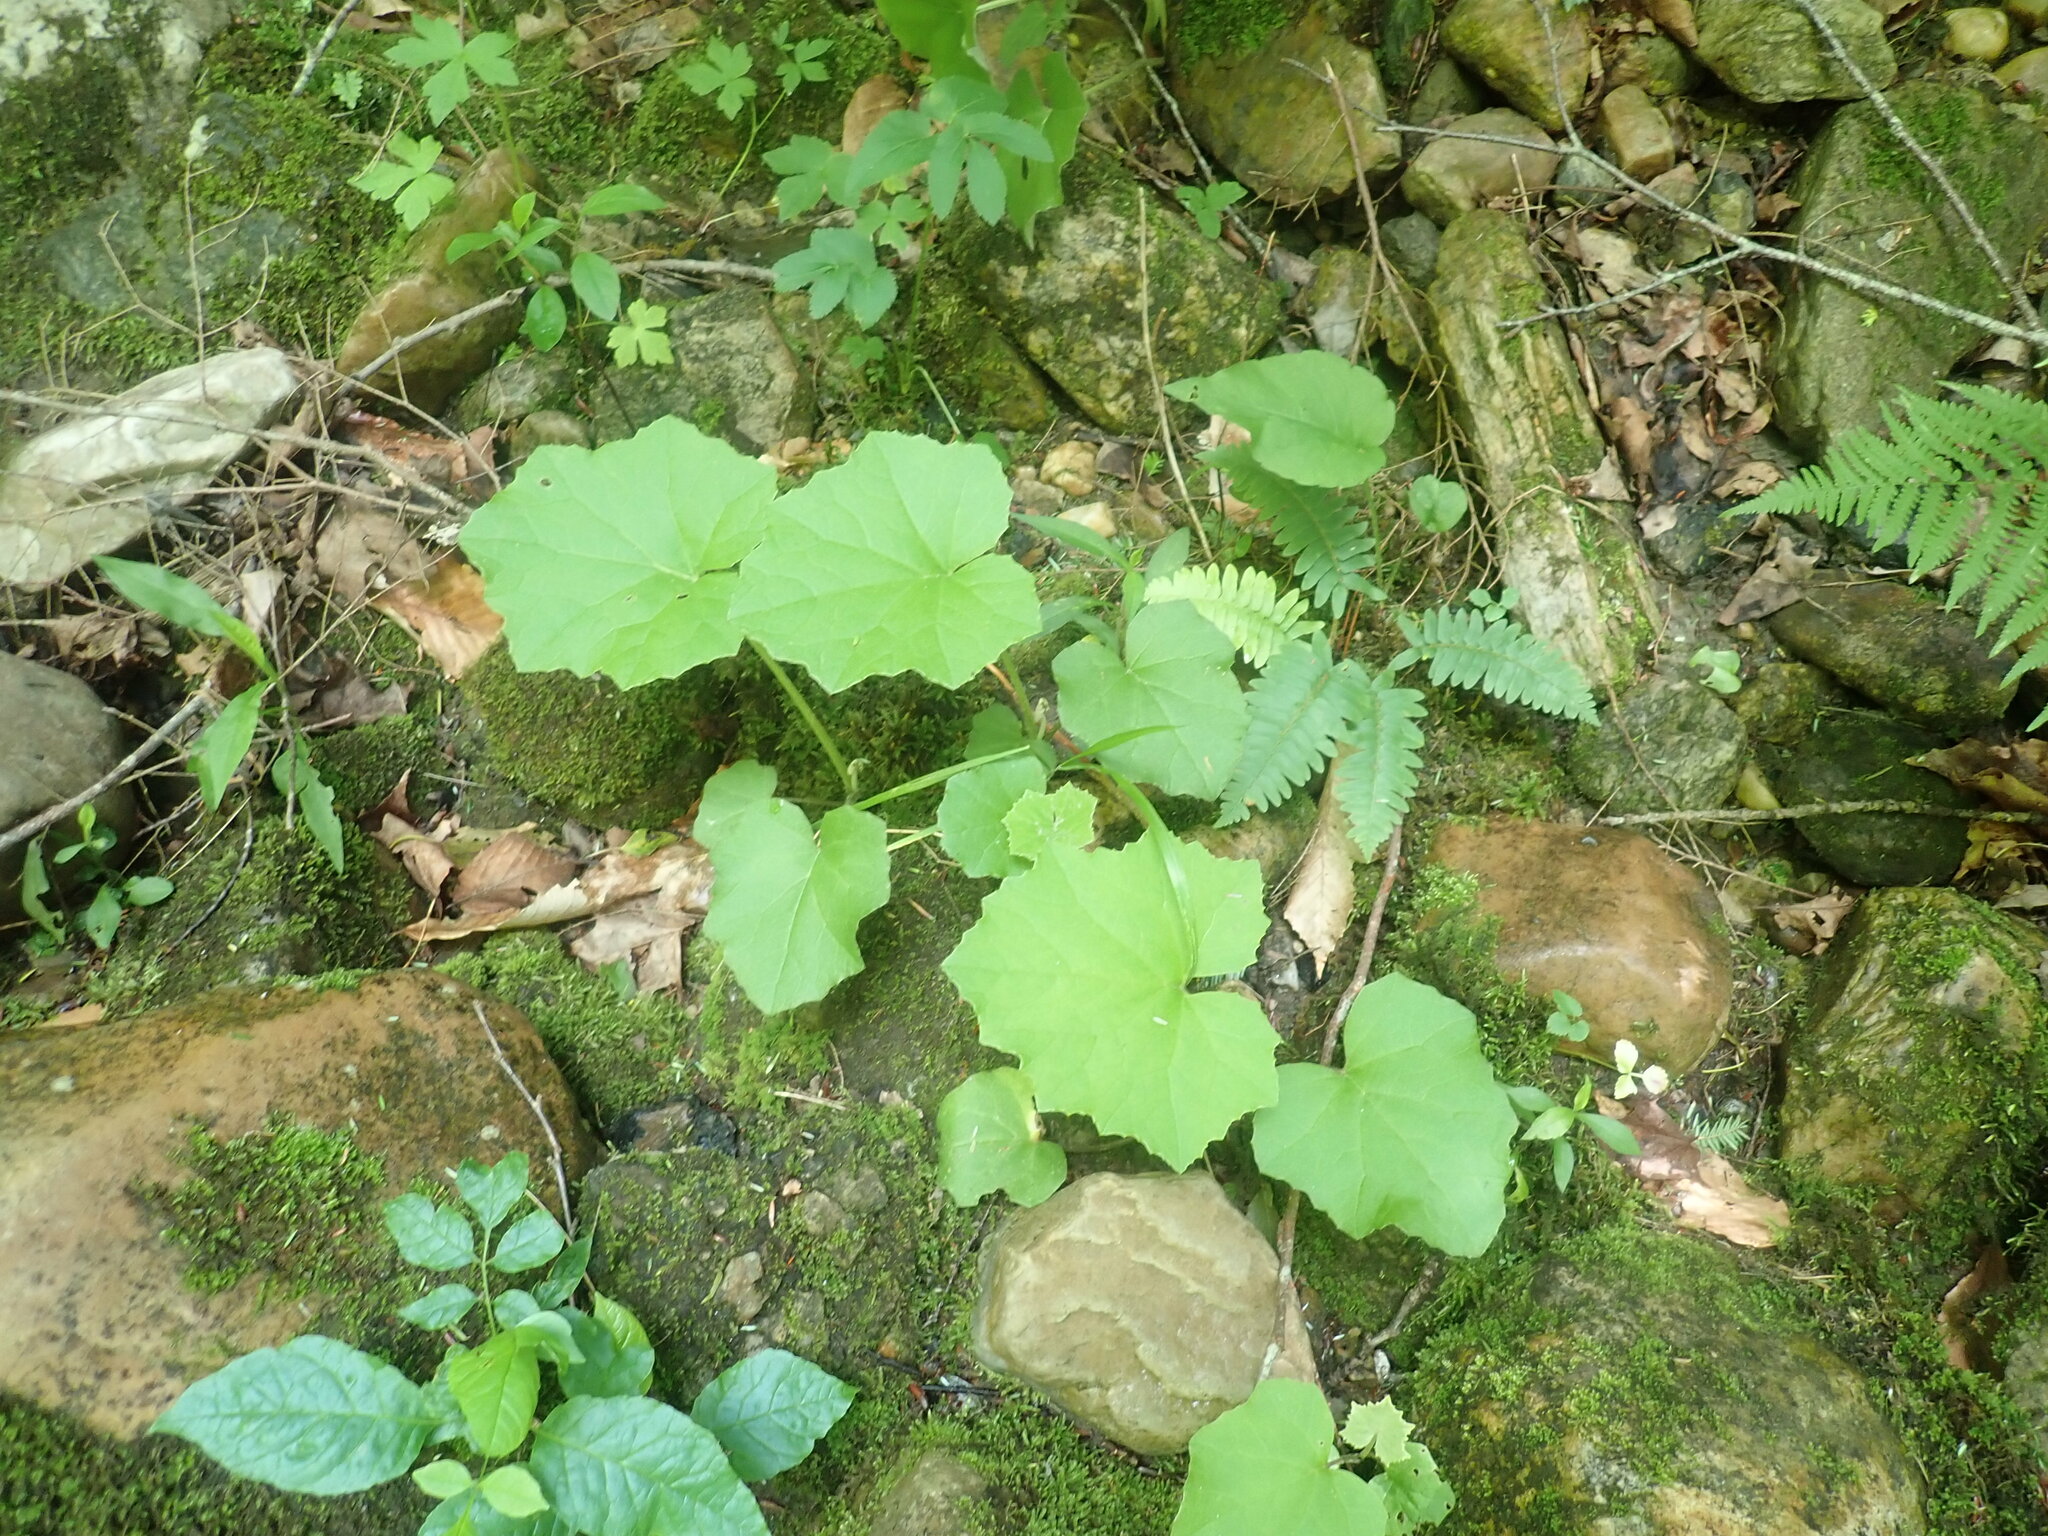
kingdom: Plantae
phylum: Tracheophyta
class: Magnoliopsida
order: Asterales
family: Asteraceae
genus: Tussilago
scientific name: Tussilago farfara
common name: Coltsfoot
